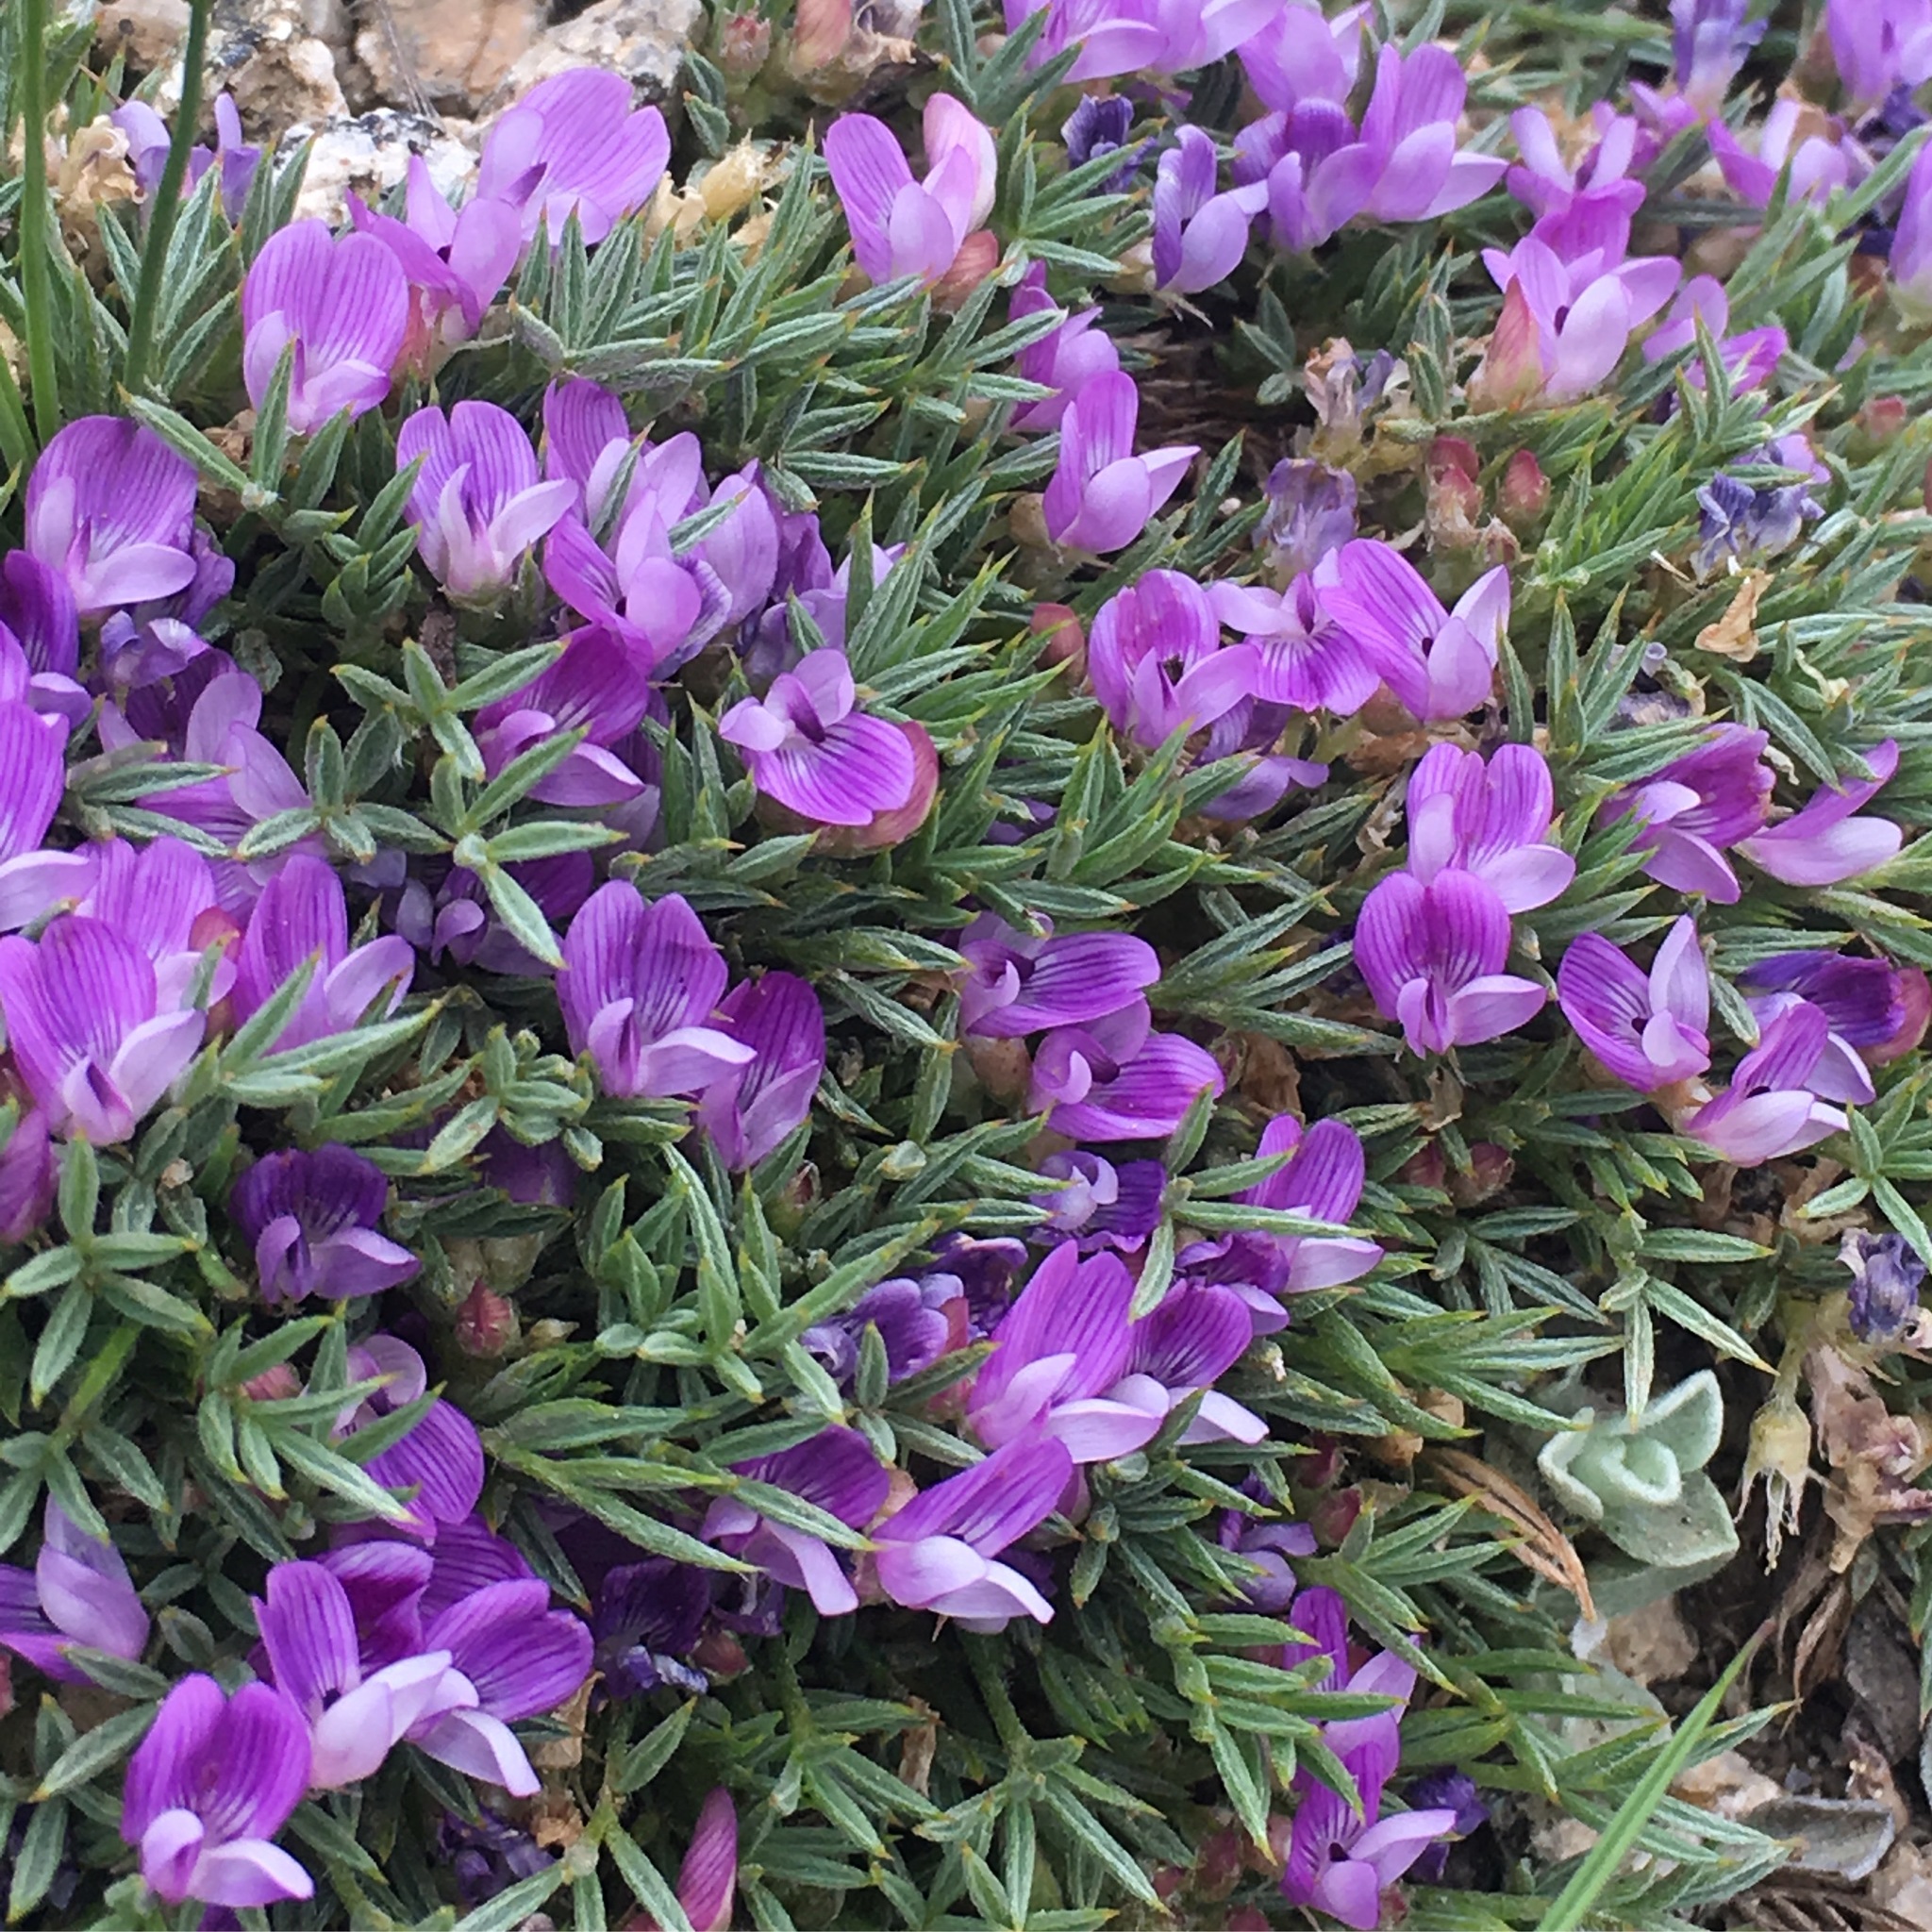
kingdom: Plantae
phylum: Tracheophyta
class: Magnoliopsida
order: Fabales
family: Fabaceae
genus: Astragalus
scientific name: Astragalus kentrophyta
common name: Prickly milk-vetch
